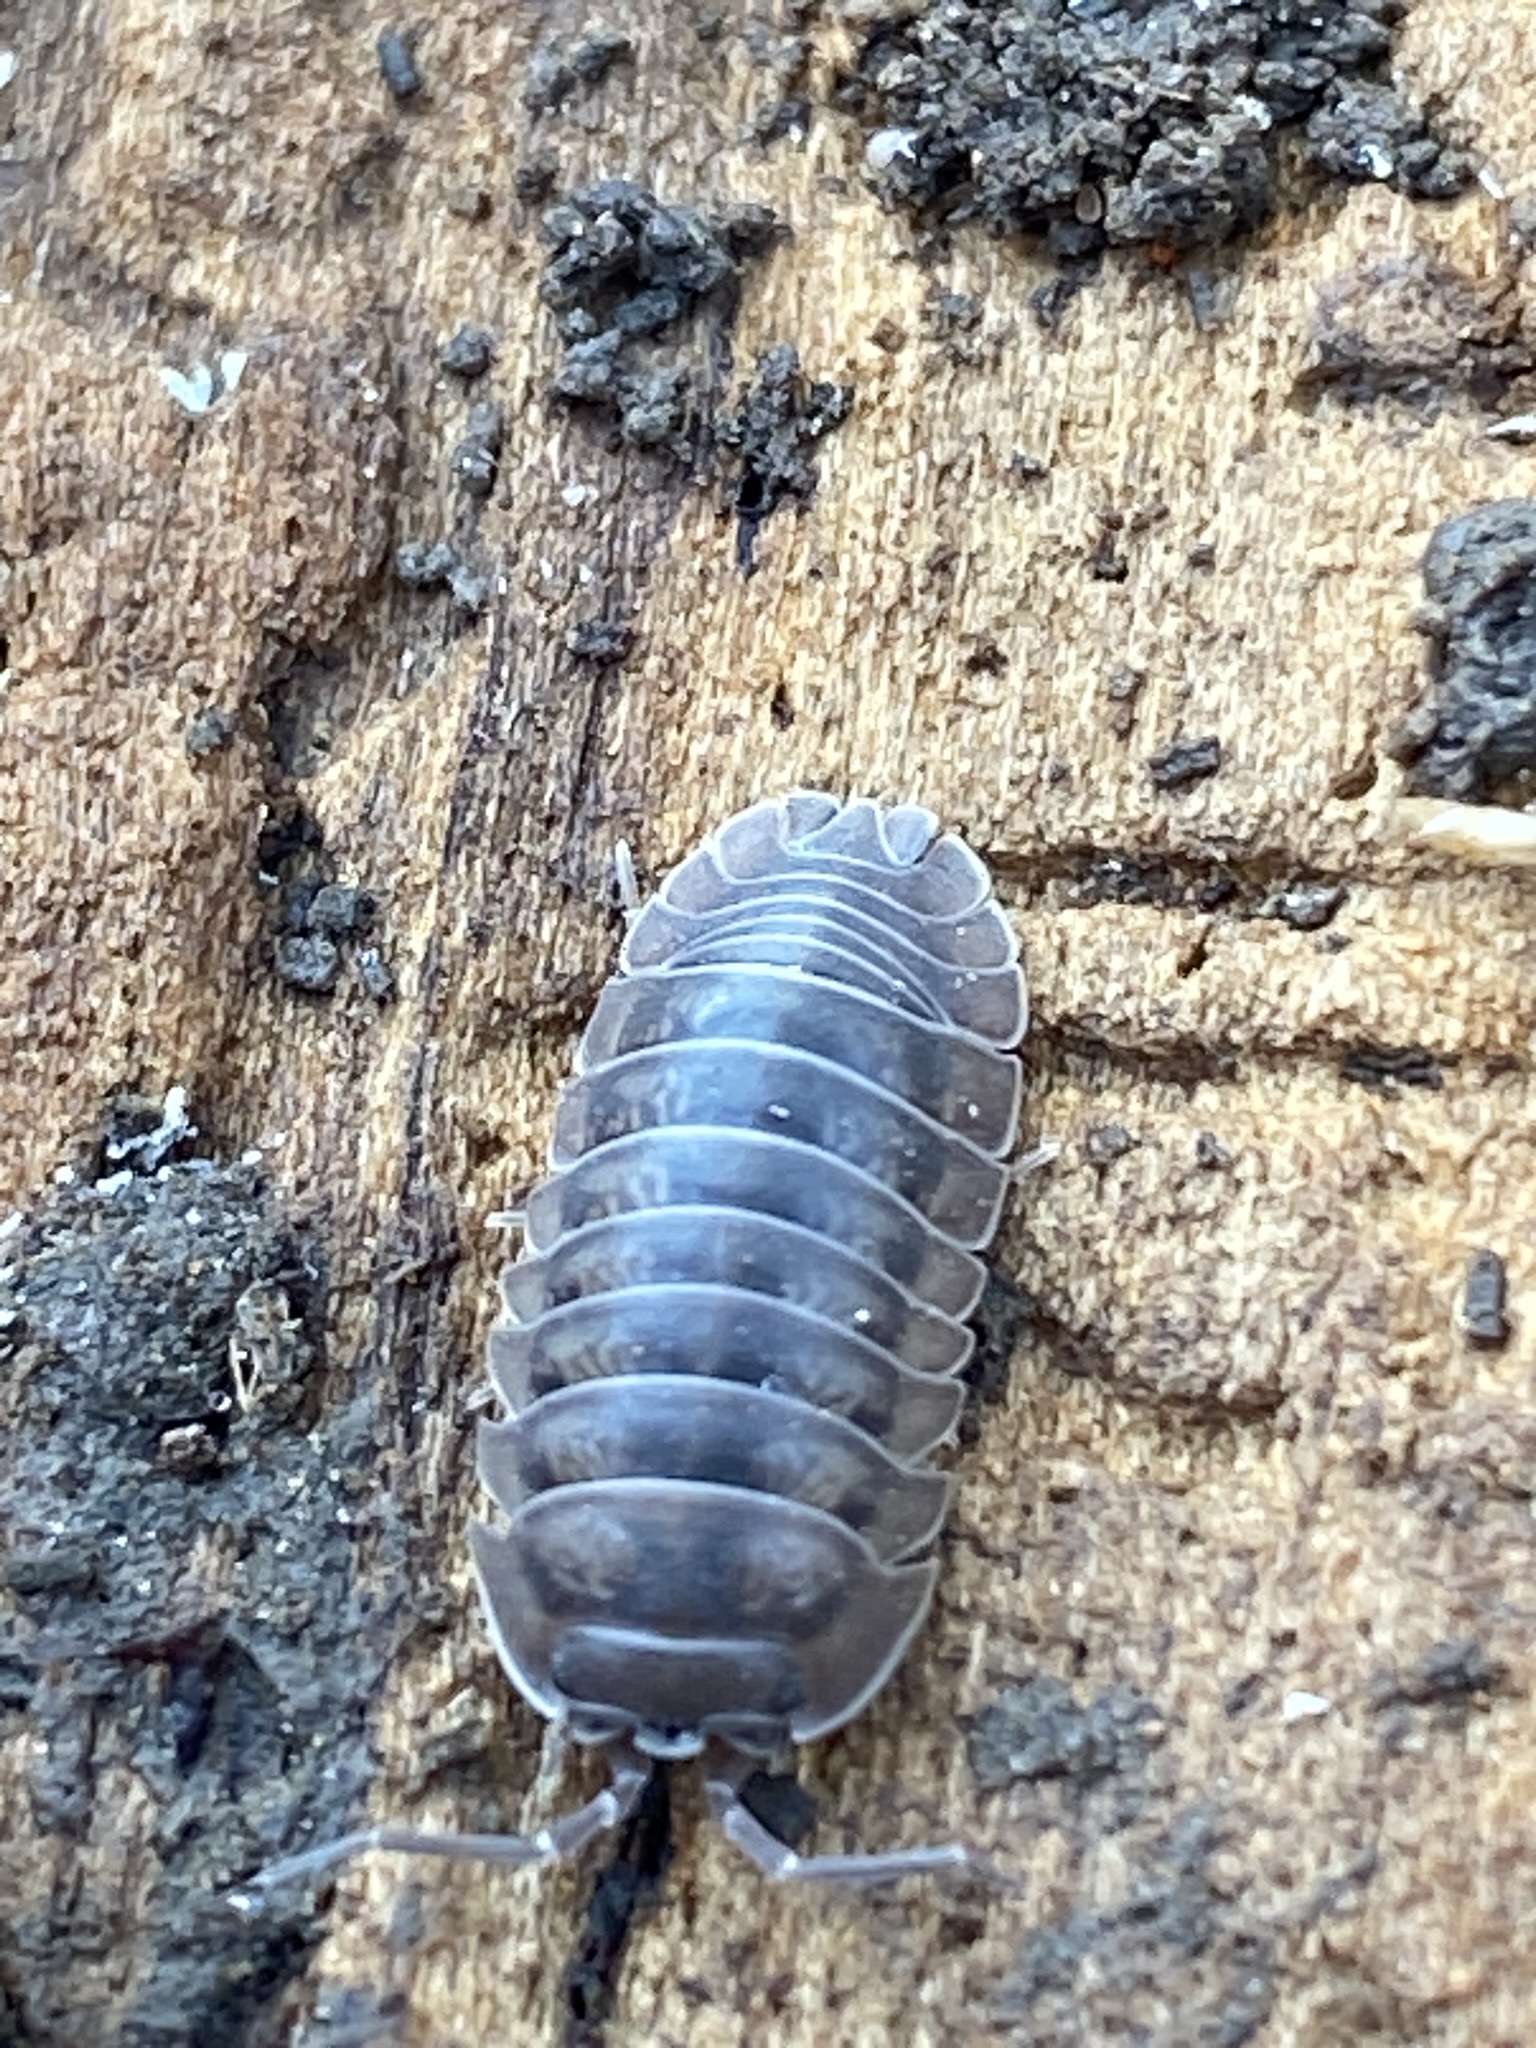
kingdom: Animalia
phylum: Arthropoda
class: Malacostraca
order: Isopoda
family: Armadillidiidae
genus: Armadillidium
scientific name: Armadillidium nasatum
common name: Isopod
